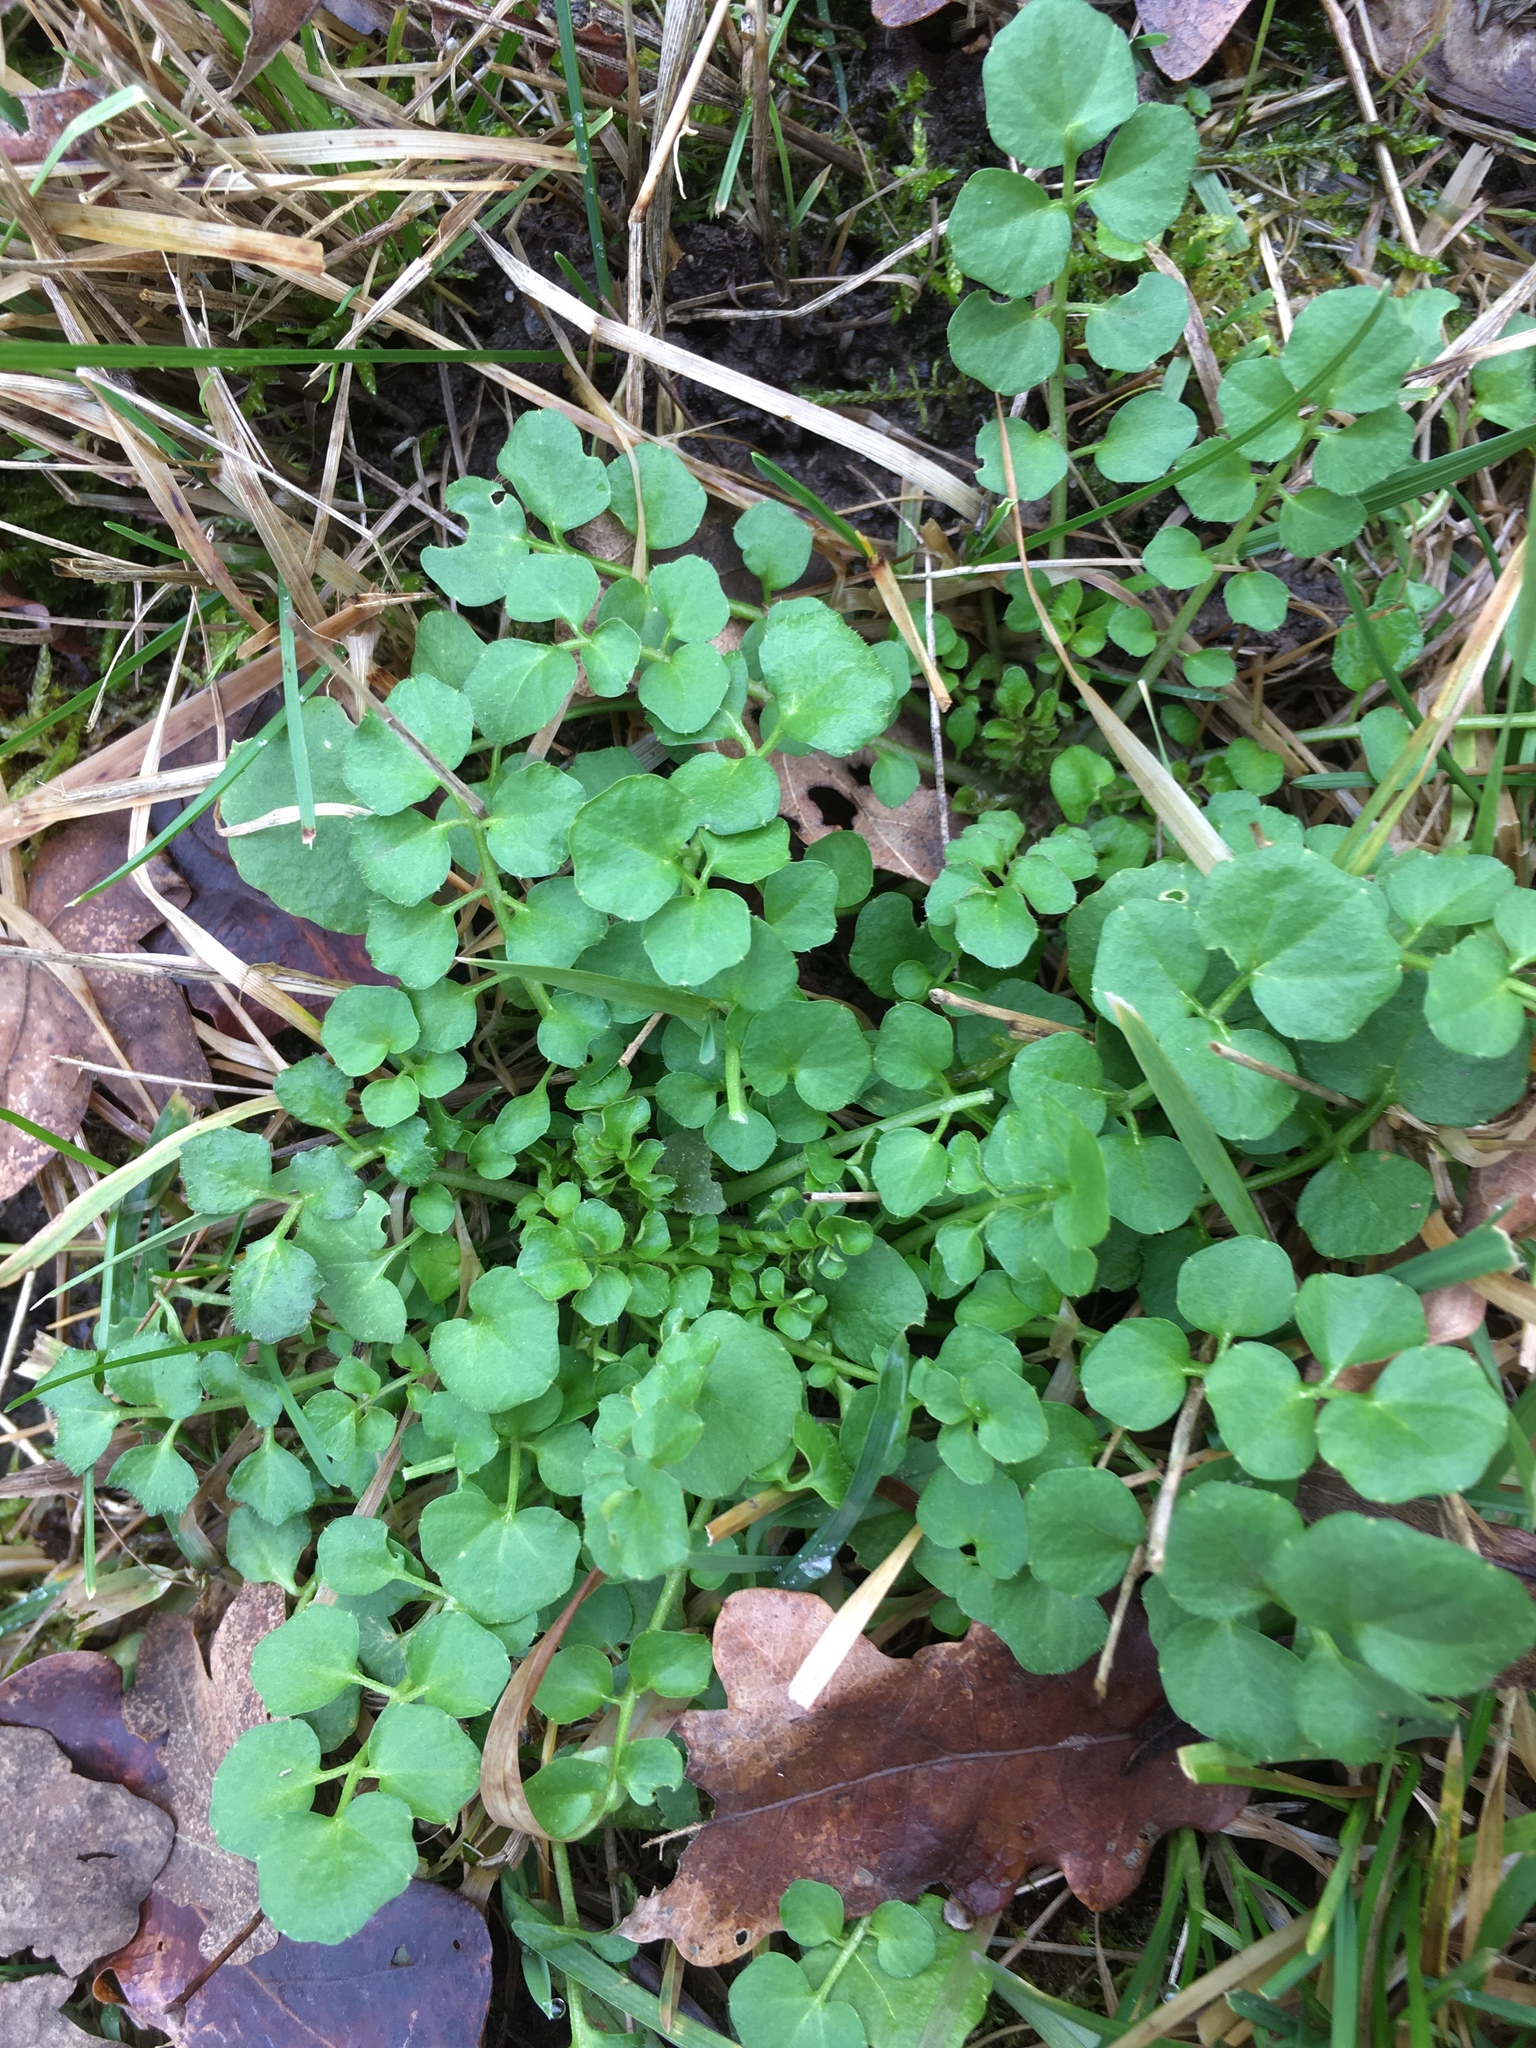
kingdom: Plantae
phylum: Tracheophyta
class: Magnoliopsida
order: Brassicales
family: Brassicaceae
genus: Cardamine
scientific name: Cardamine hirsuta
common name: Hairy bittercress
